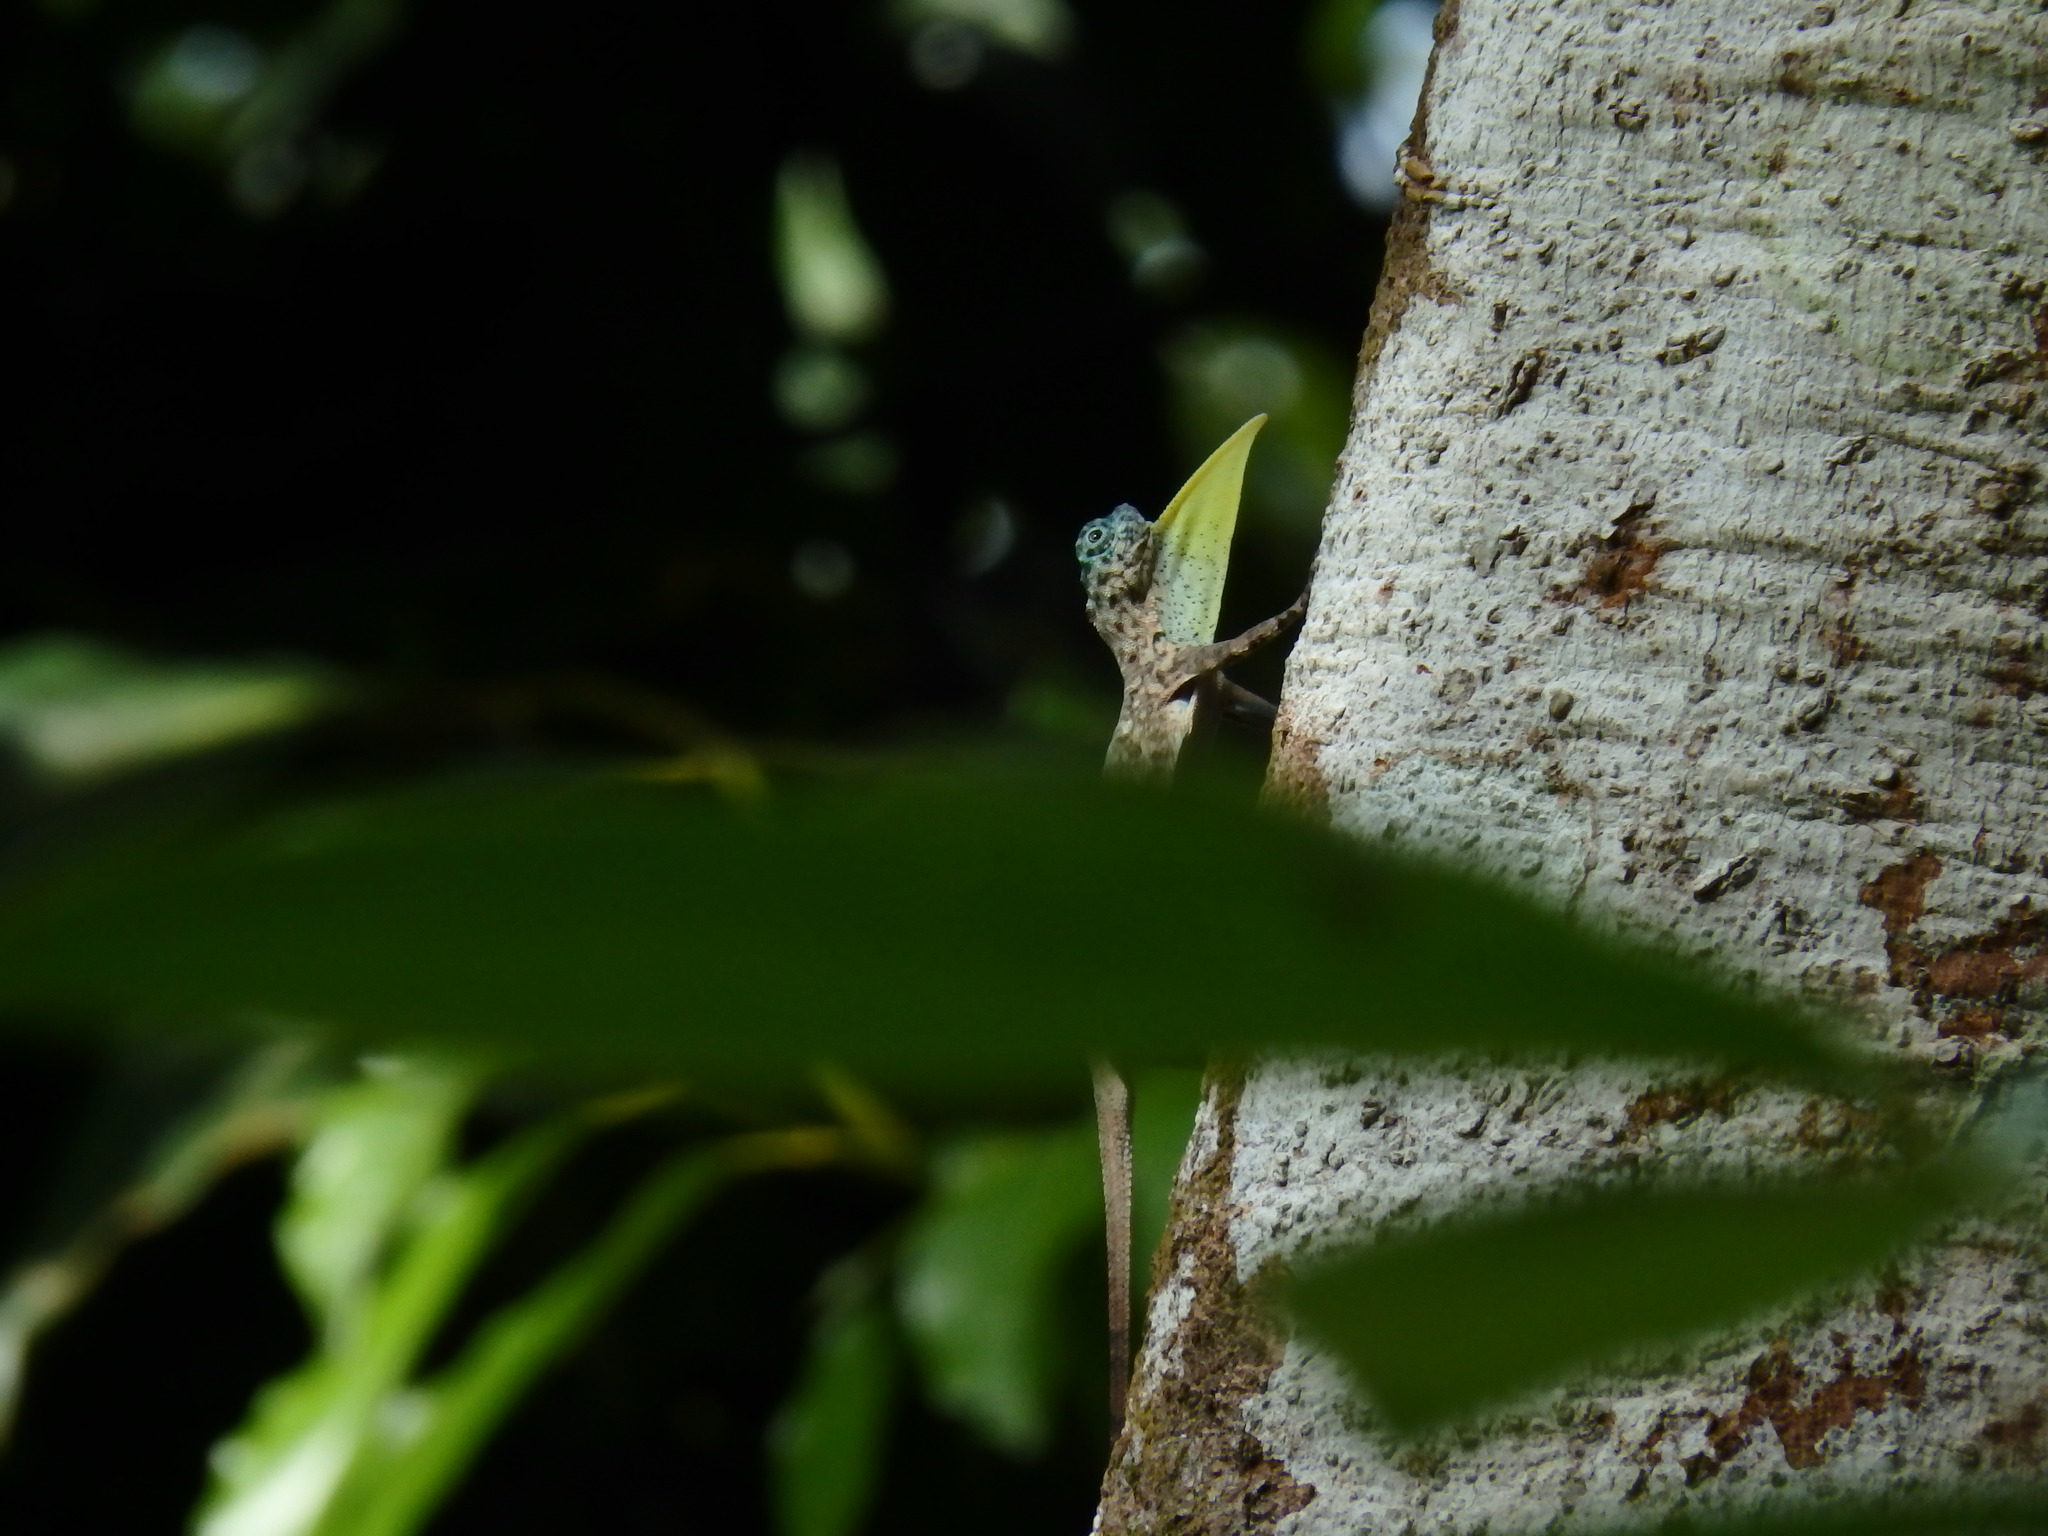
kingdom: Animalia
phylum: Chordata
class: Squamata
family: Agamidae
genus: Draco
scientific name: Draco sumatranus
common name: Common gliding lizard
